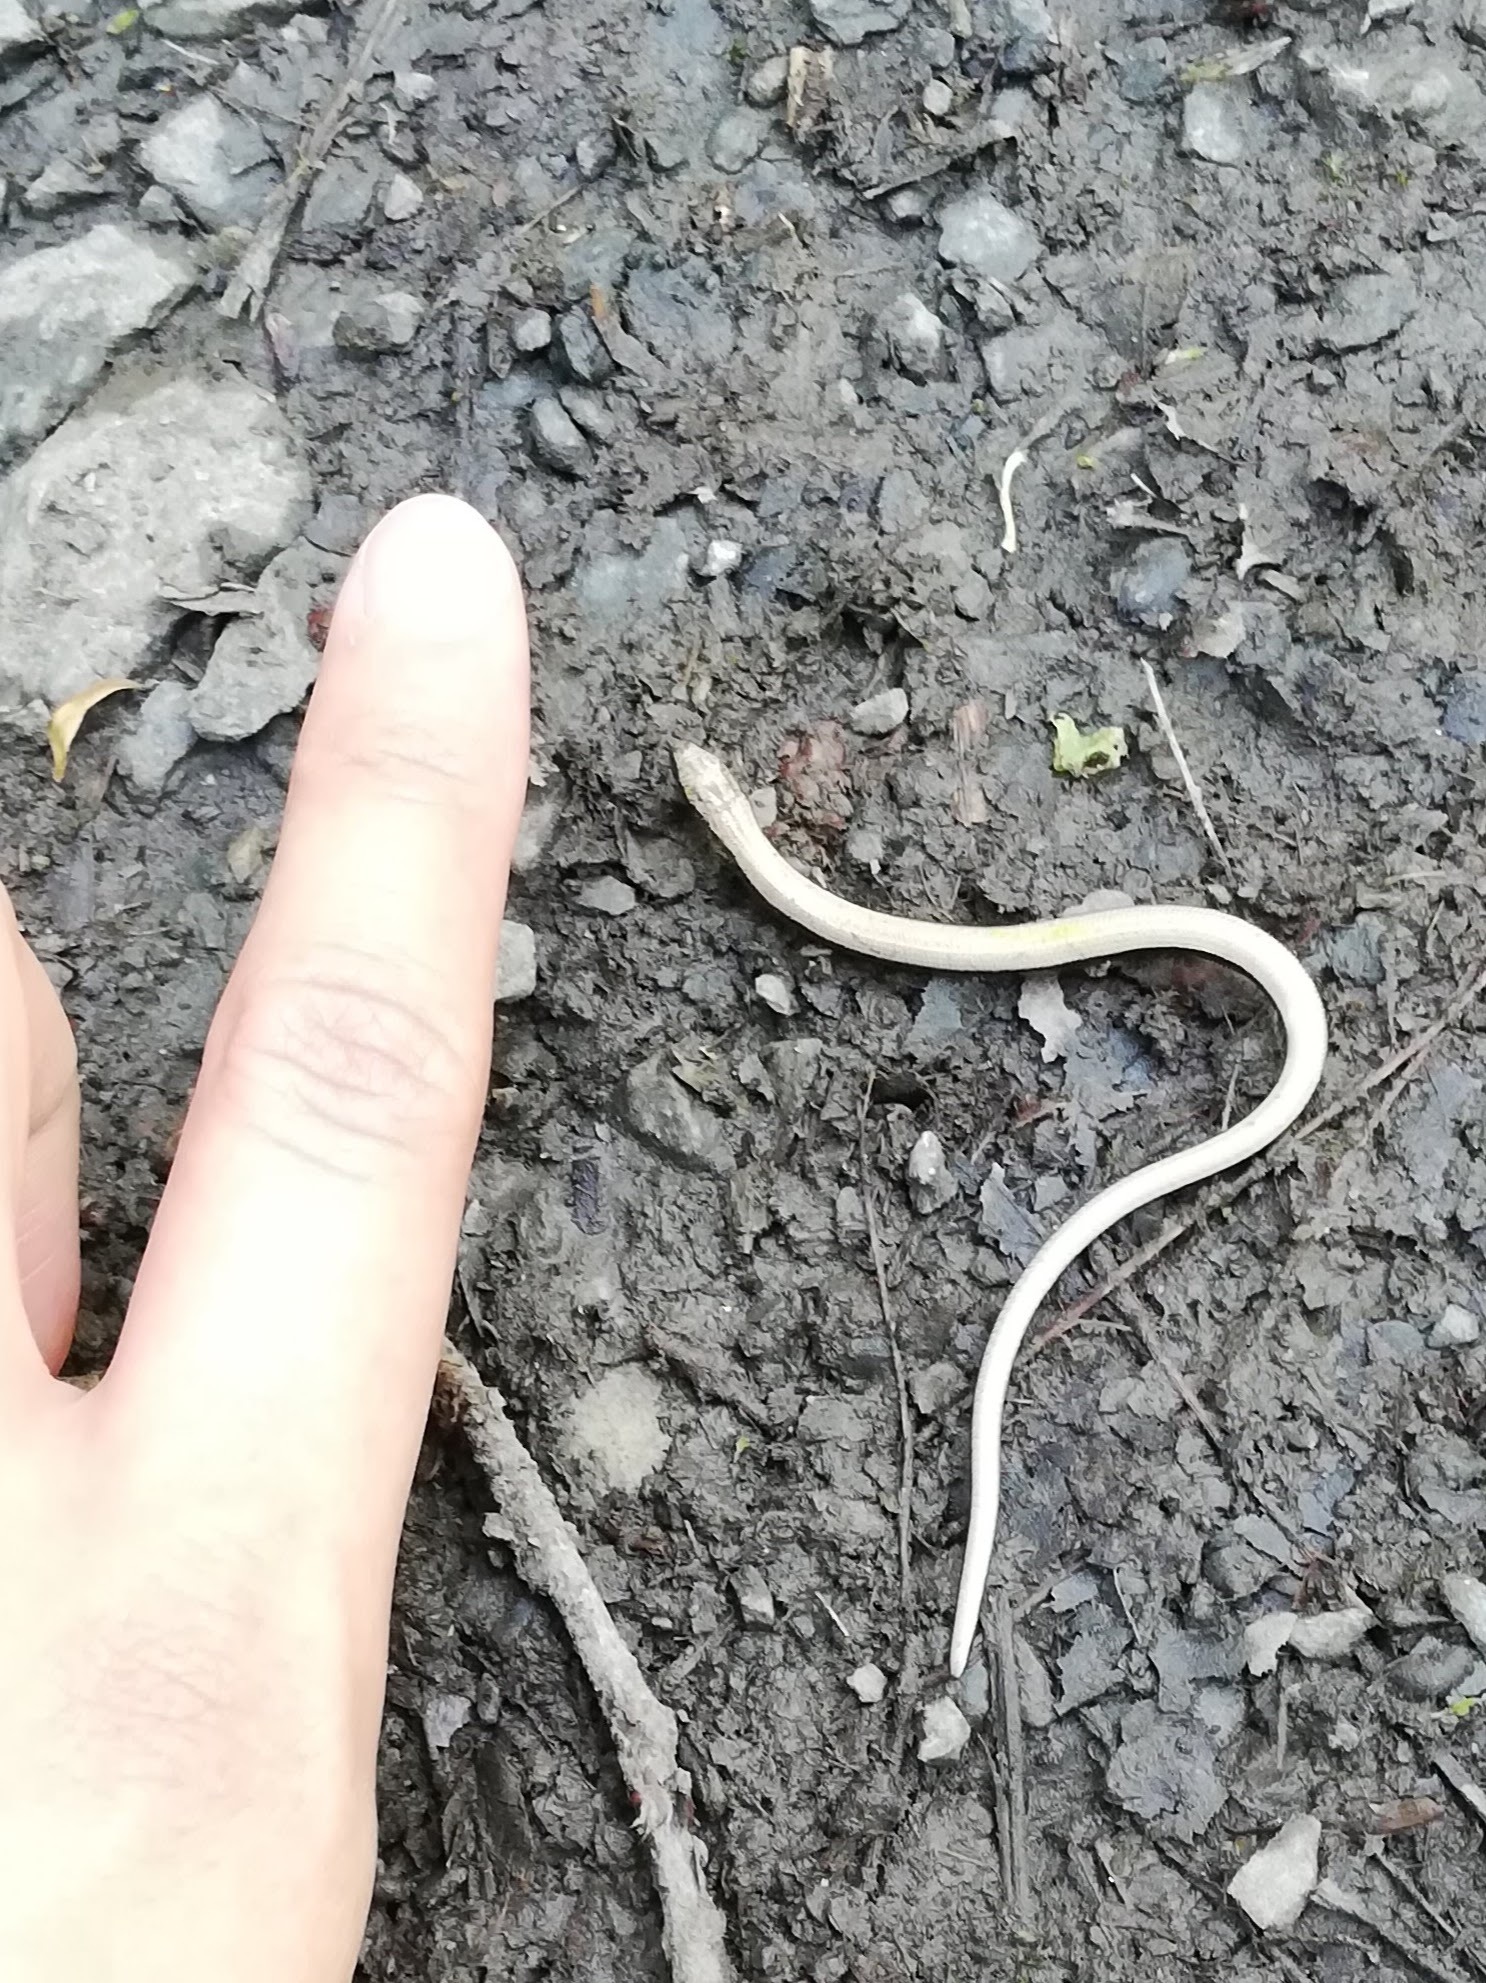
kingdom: Animalia
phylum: Chordata
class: Squamata
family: Anguidae
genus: Anguis
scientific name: Anguis fragilis
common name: Slow worm
